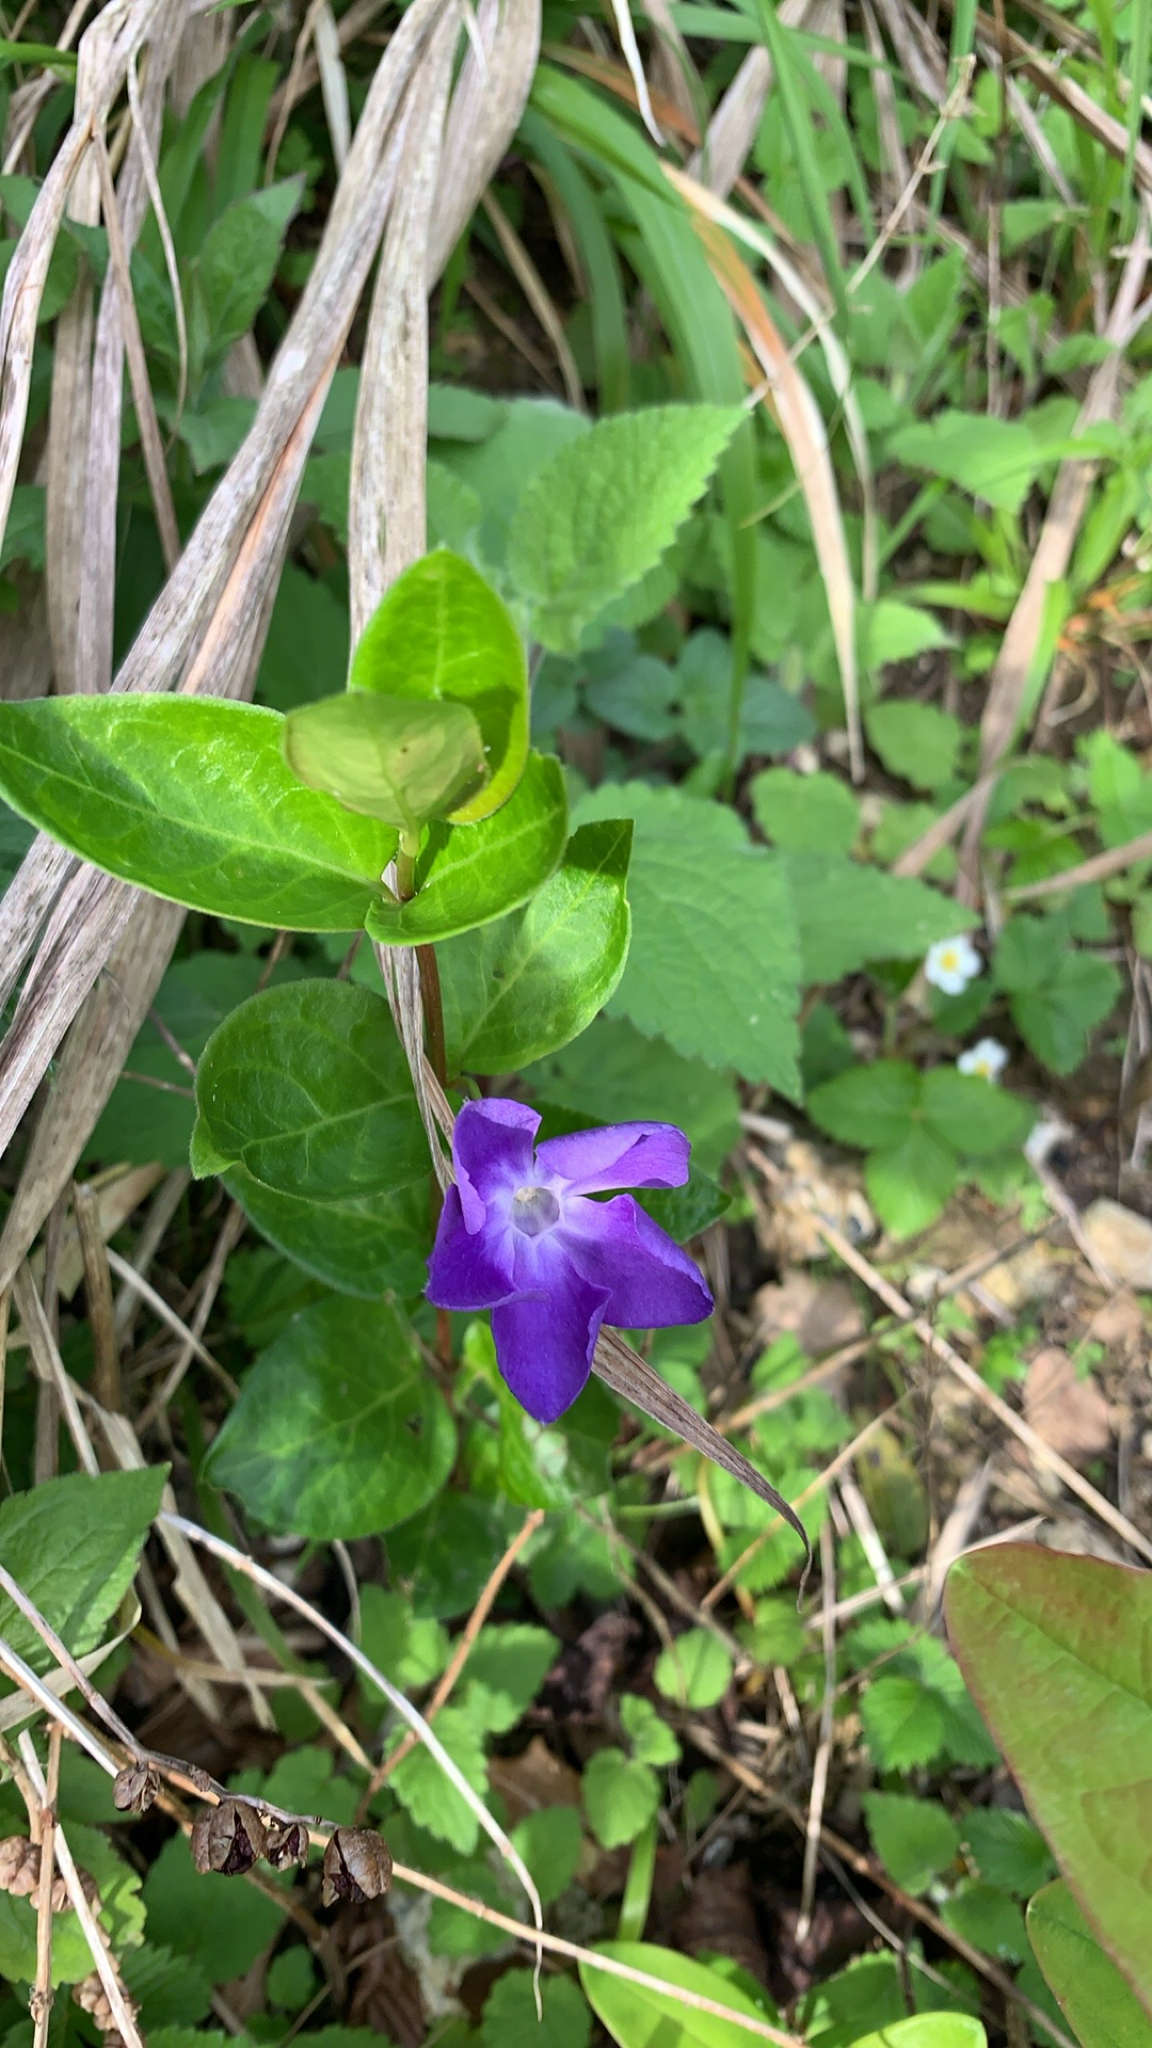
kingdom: Plantae
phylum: Tracheophyta
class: Magnoliopsida
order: Gentianales
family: Apocynaceae
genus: Vinca
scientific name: Vinca major
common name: Greater periwinkle
